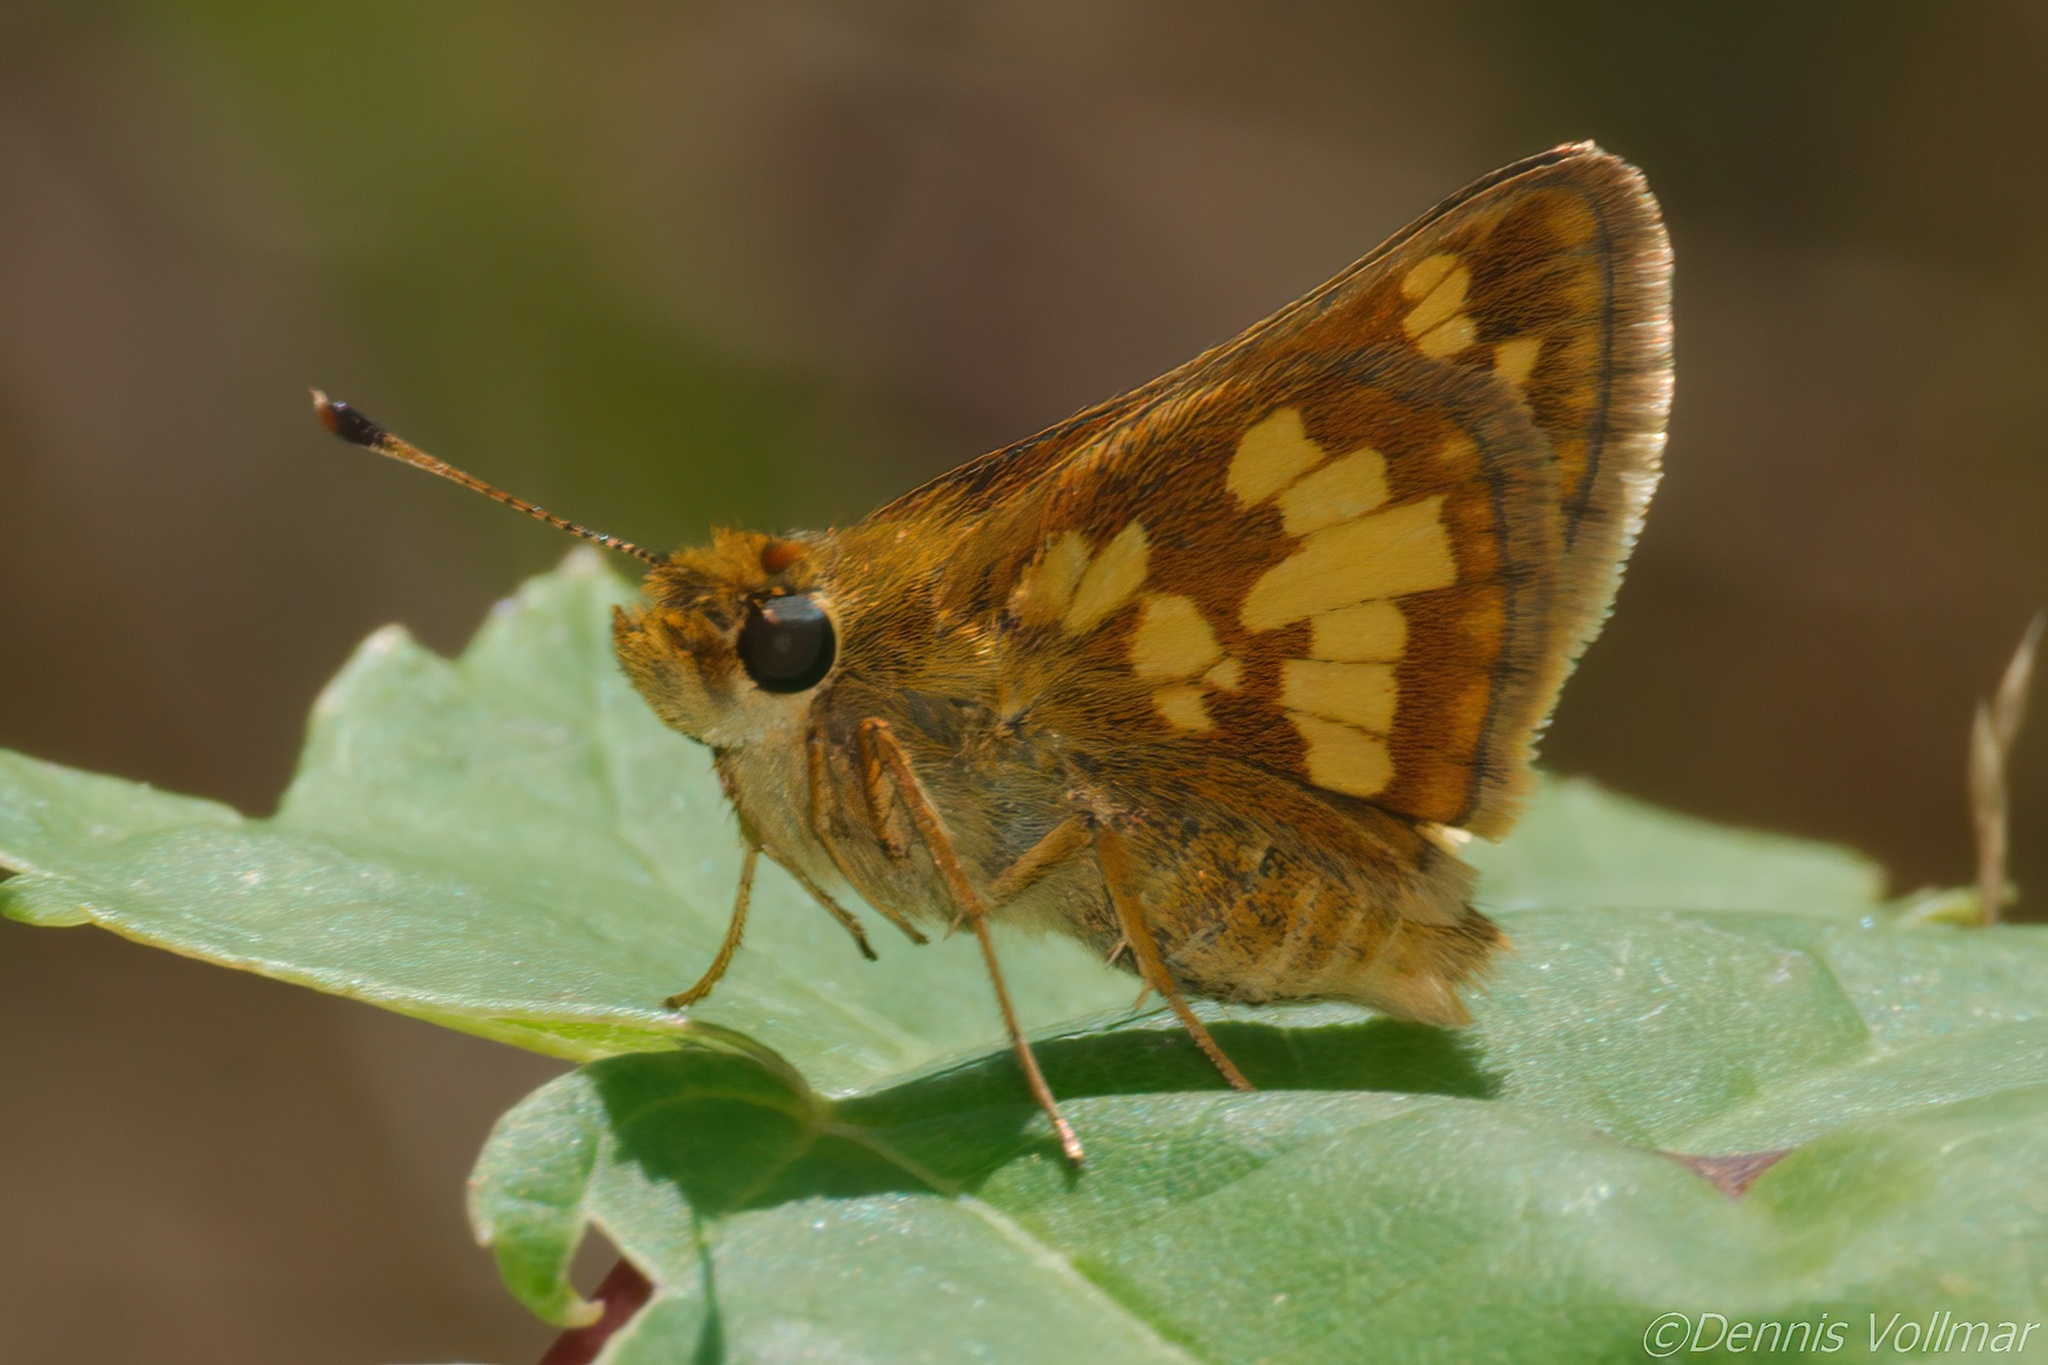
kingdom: Animalia
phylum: Arthropoda
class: Insecta
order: Lepidoptera
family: Hesperiidae
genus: Polites
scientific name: Polites coras
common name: Peck's skipper
